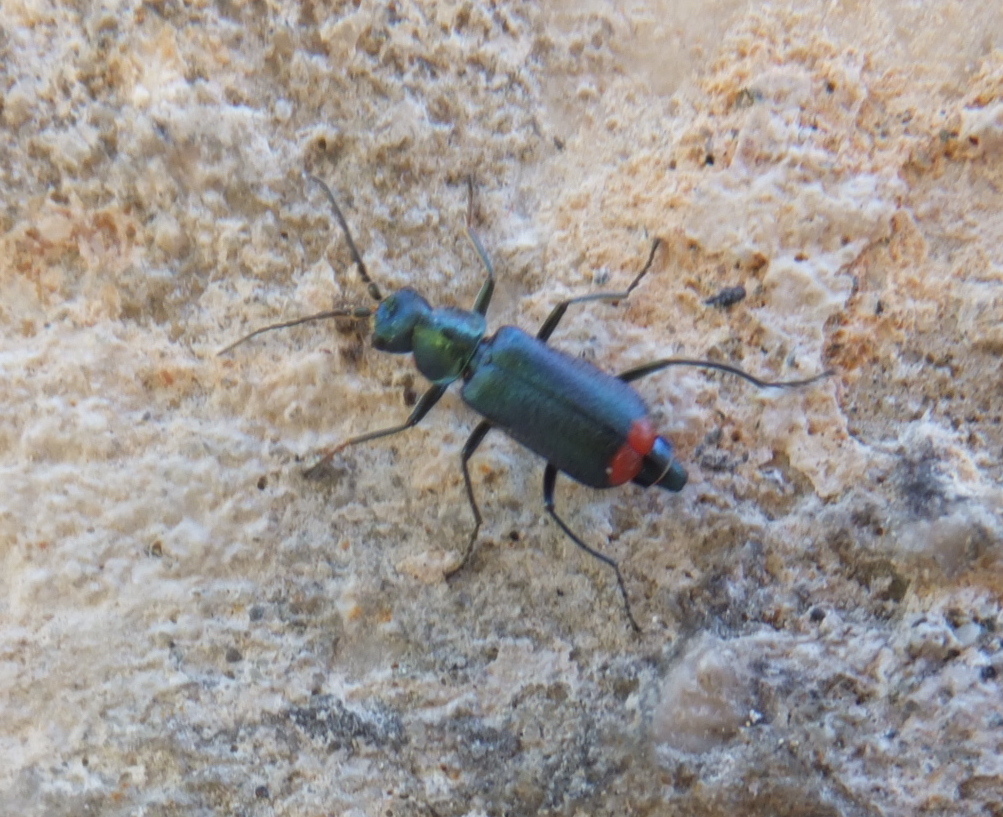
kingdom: Animalia
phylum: Arthropoda
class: Insecta
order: Coleoptera
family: Melyridae
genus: Malachius
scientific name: Malachius australis
